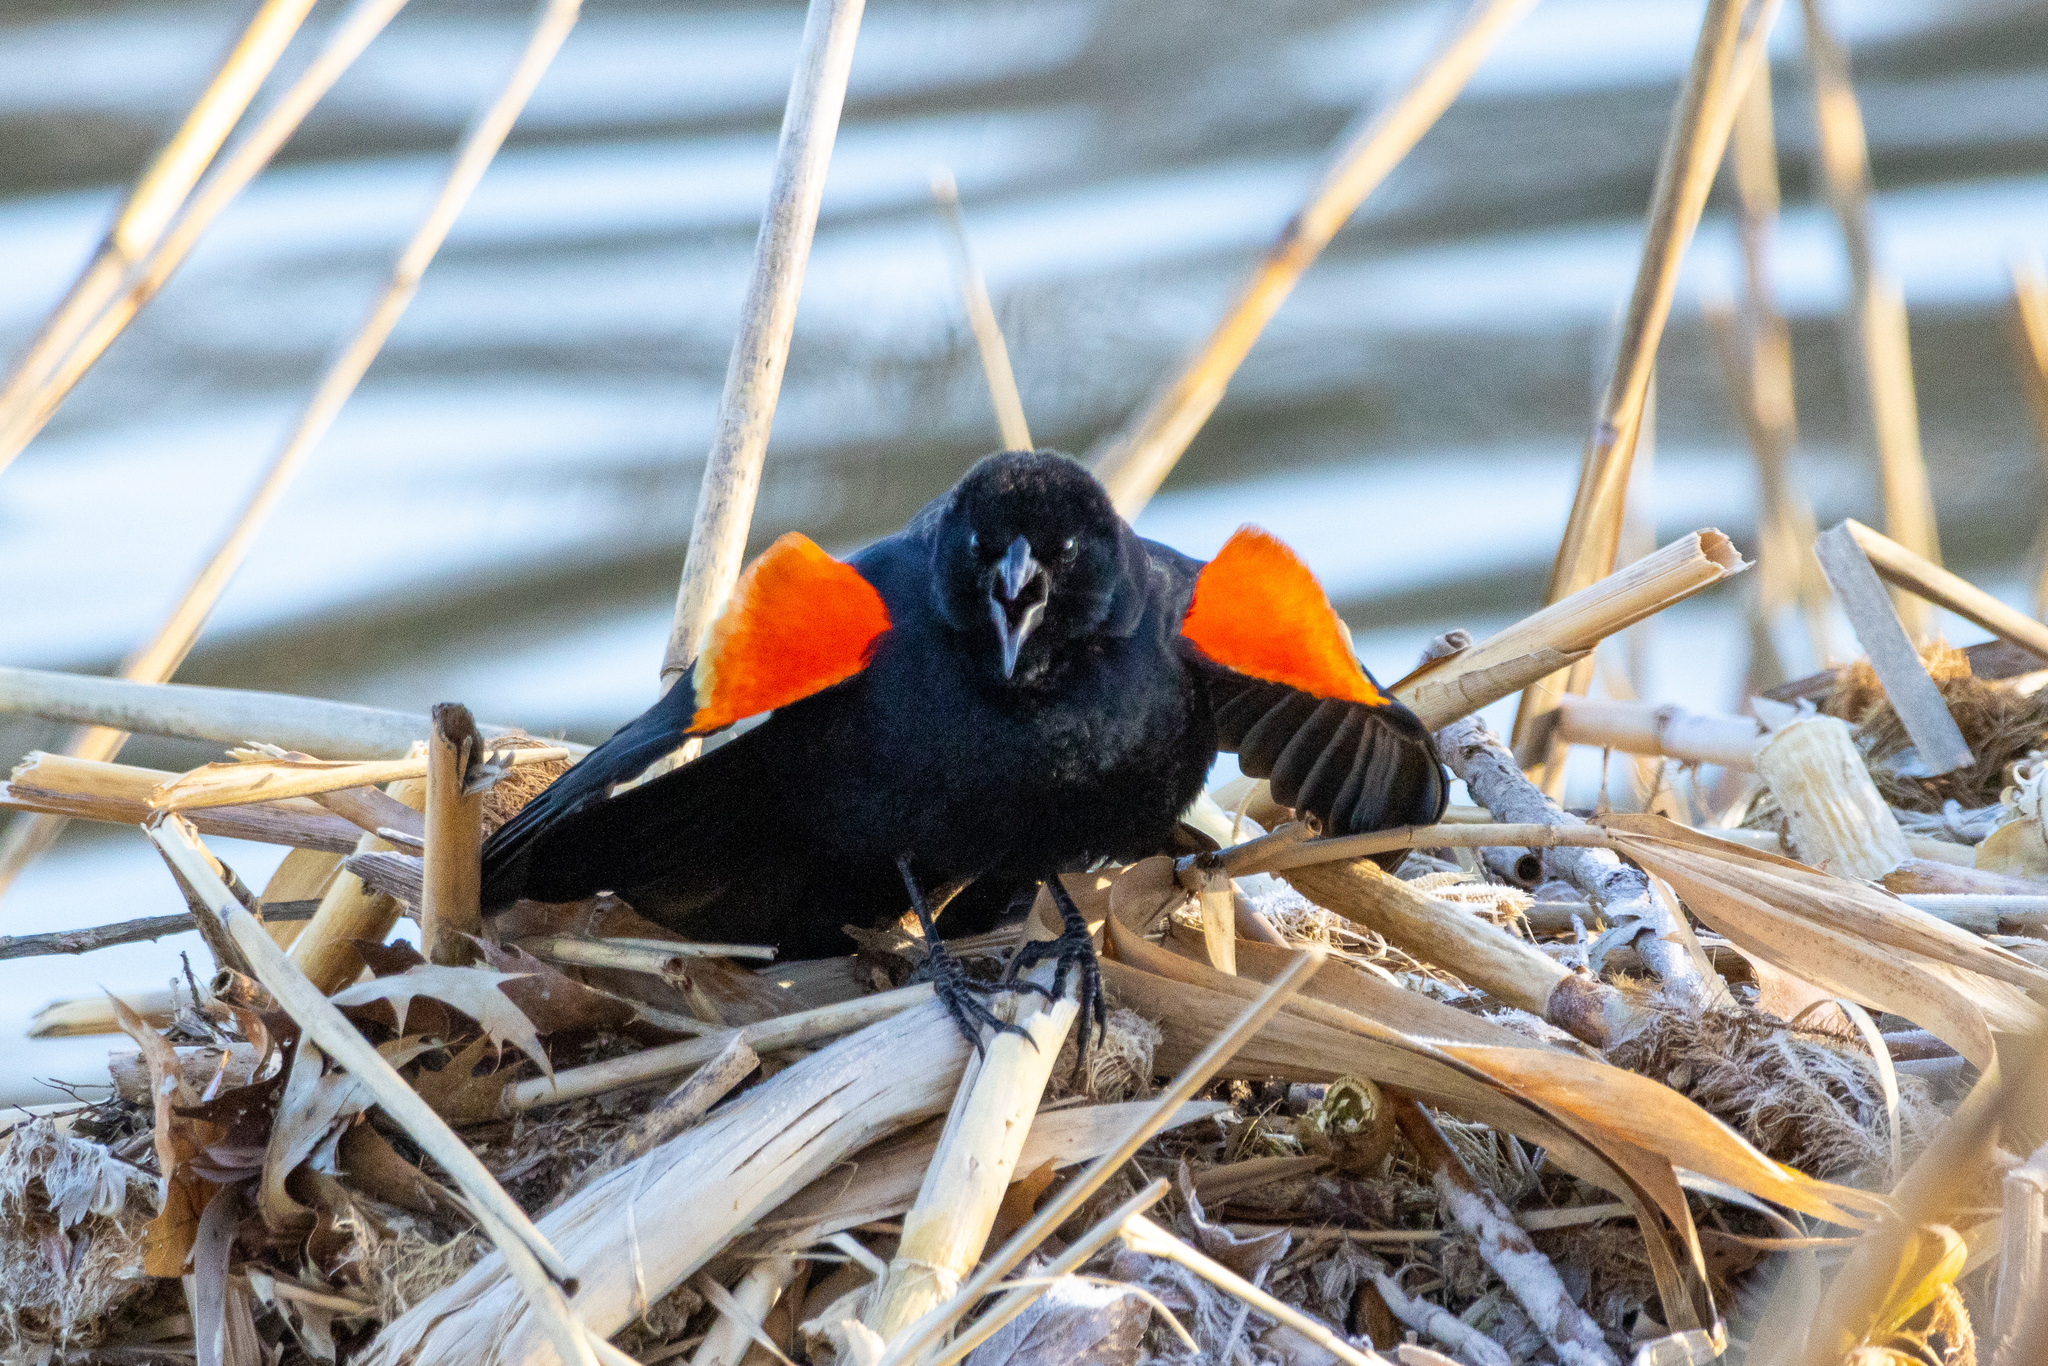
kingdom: Animalia
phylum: Chordata
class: Aves
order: Passeriformes
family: Icteridae
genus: Agelaius
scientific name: Agelaius phoeniceus
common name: Red-winged blackbird
